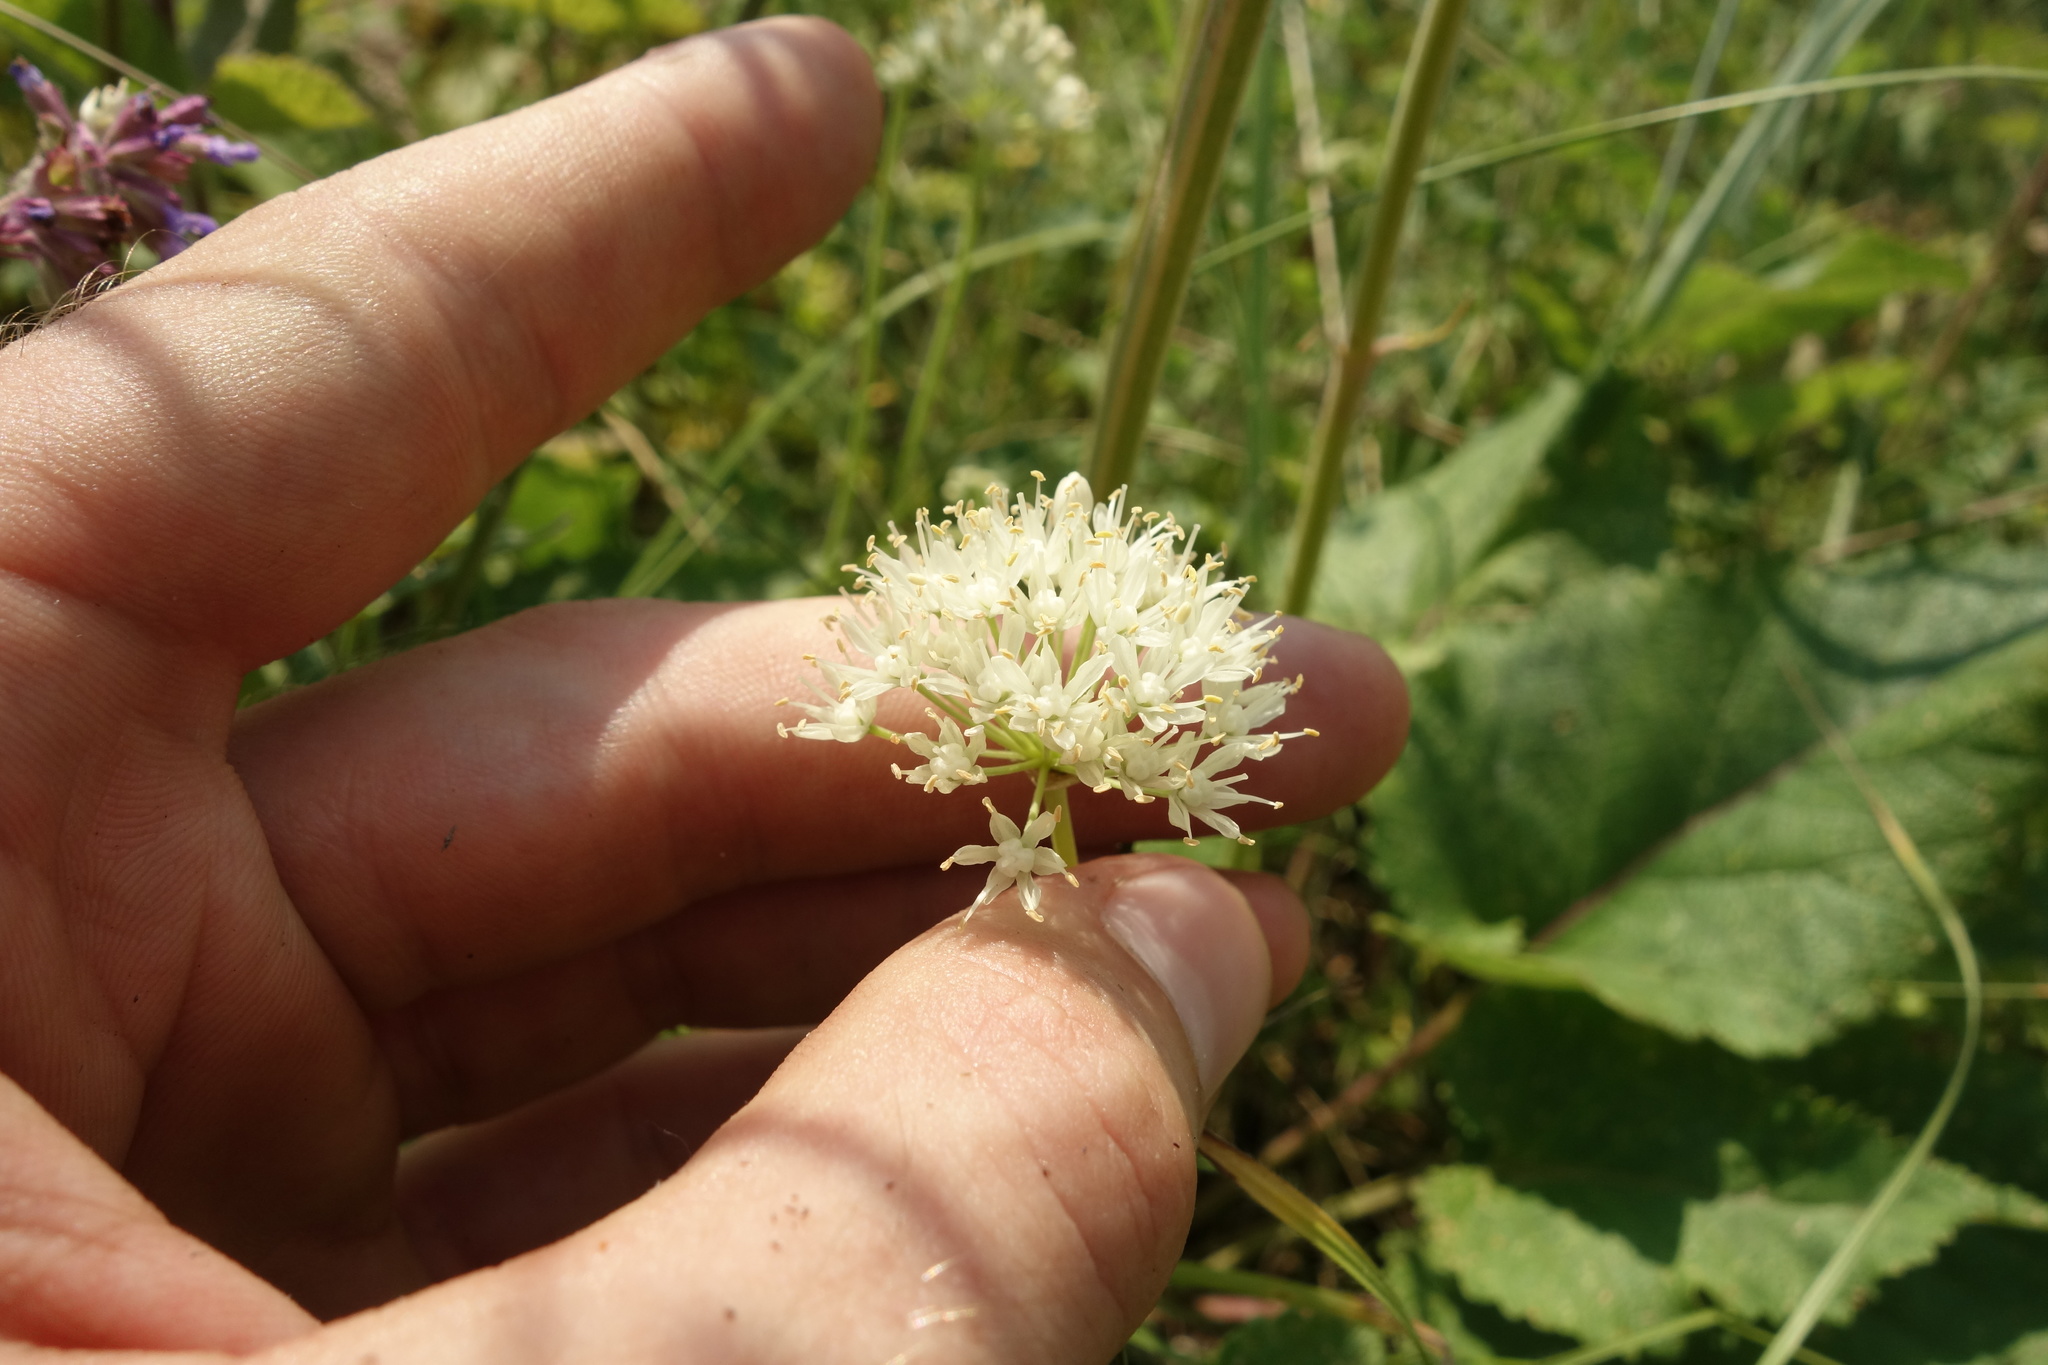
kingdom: Plantae
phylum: Tracheophyta
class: Liliopsida
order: Asparagales
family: Amaryllidaceae
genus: Allium
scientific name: Allium flavescens
